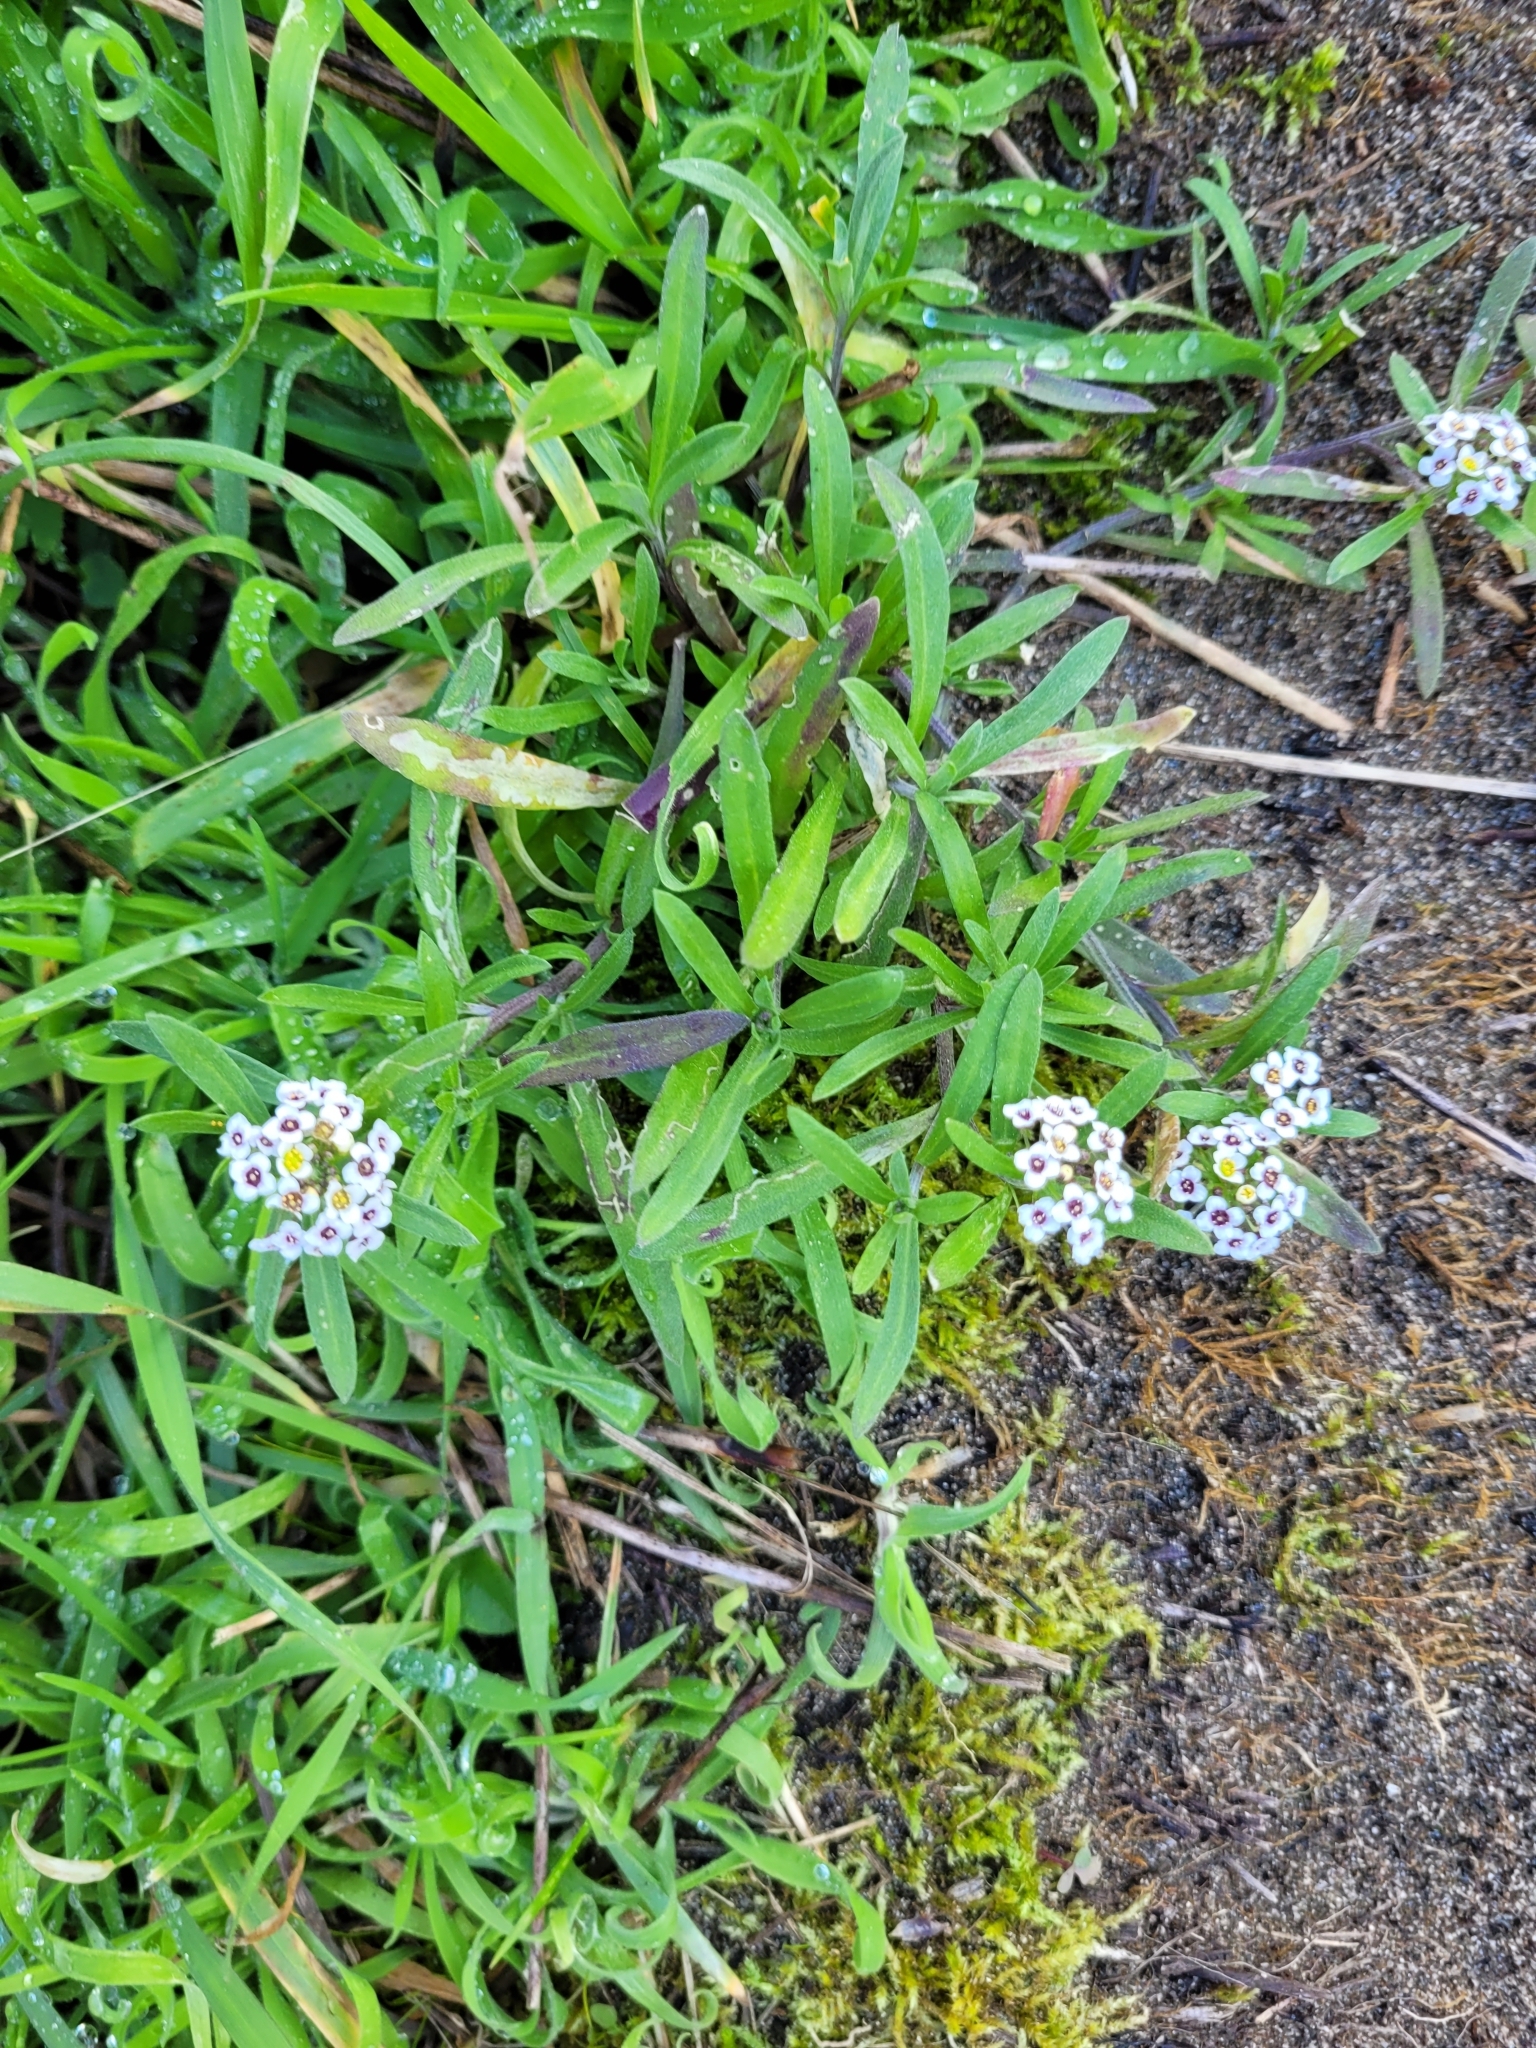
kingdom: Plantae
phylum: Tracheophyta
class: Magnoliopsida
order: Brassicales
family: Brassicaceae
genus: Lobularia
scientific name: Lobularia maritima
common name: Sweet alison
